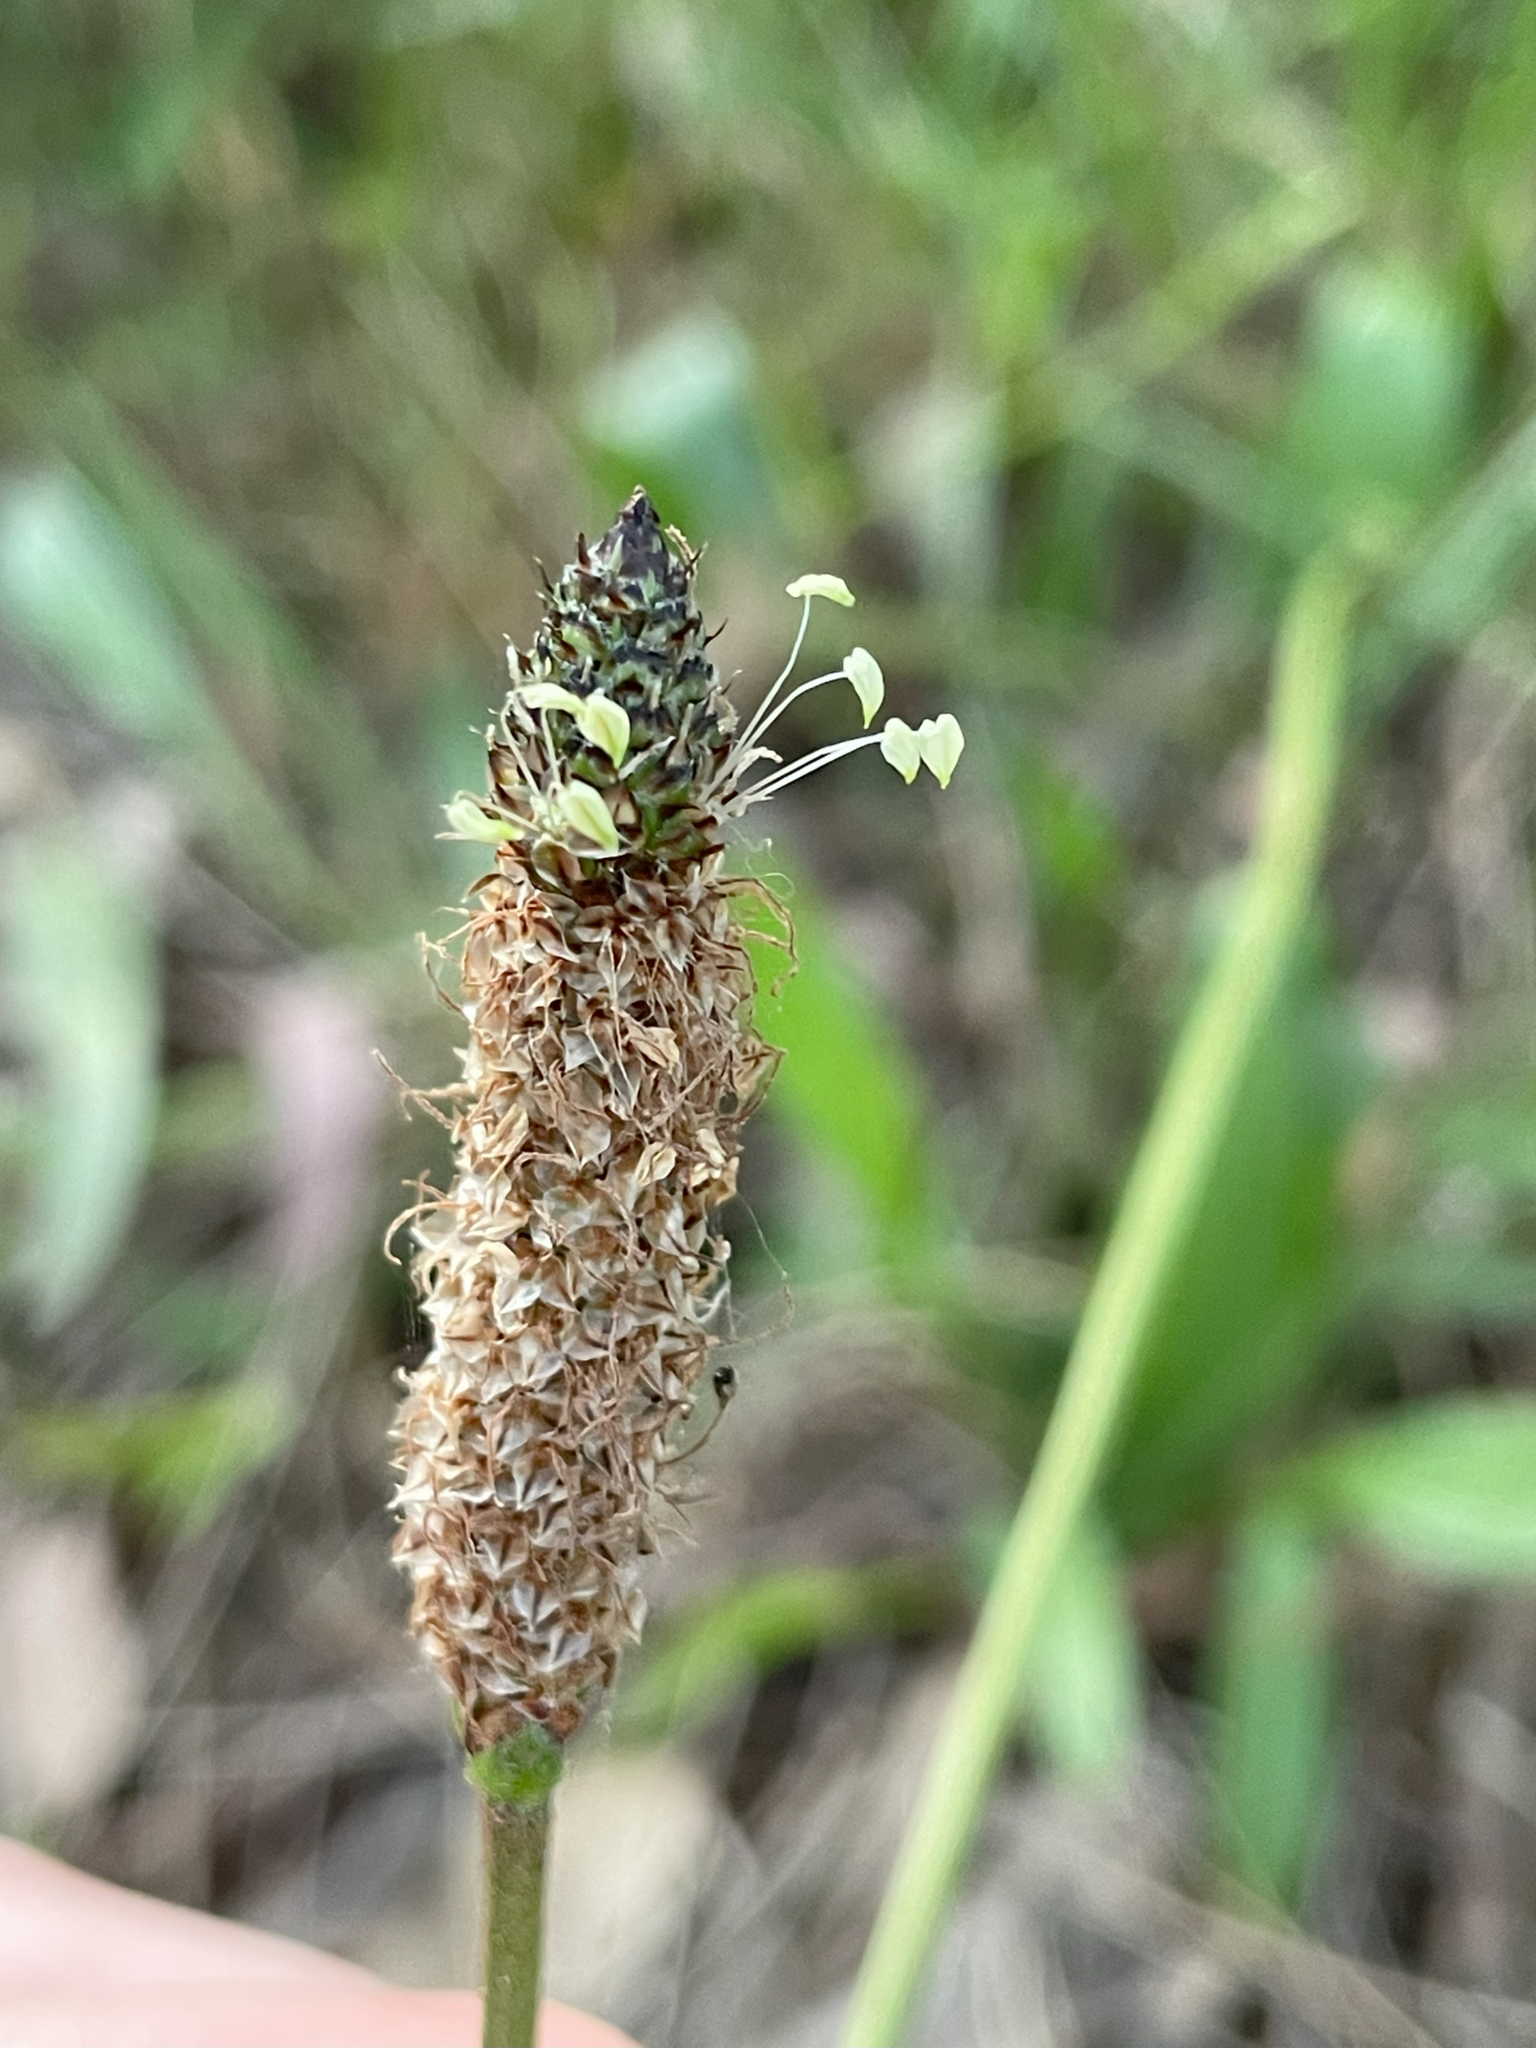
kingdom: Plantae
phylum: Tracheophyta
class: Magnoliopsida
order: Lamiales
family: Plantaginaceae
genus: Plantago
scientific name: Plantago lanceolata
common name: Ribwort plantain
